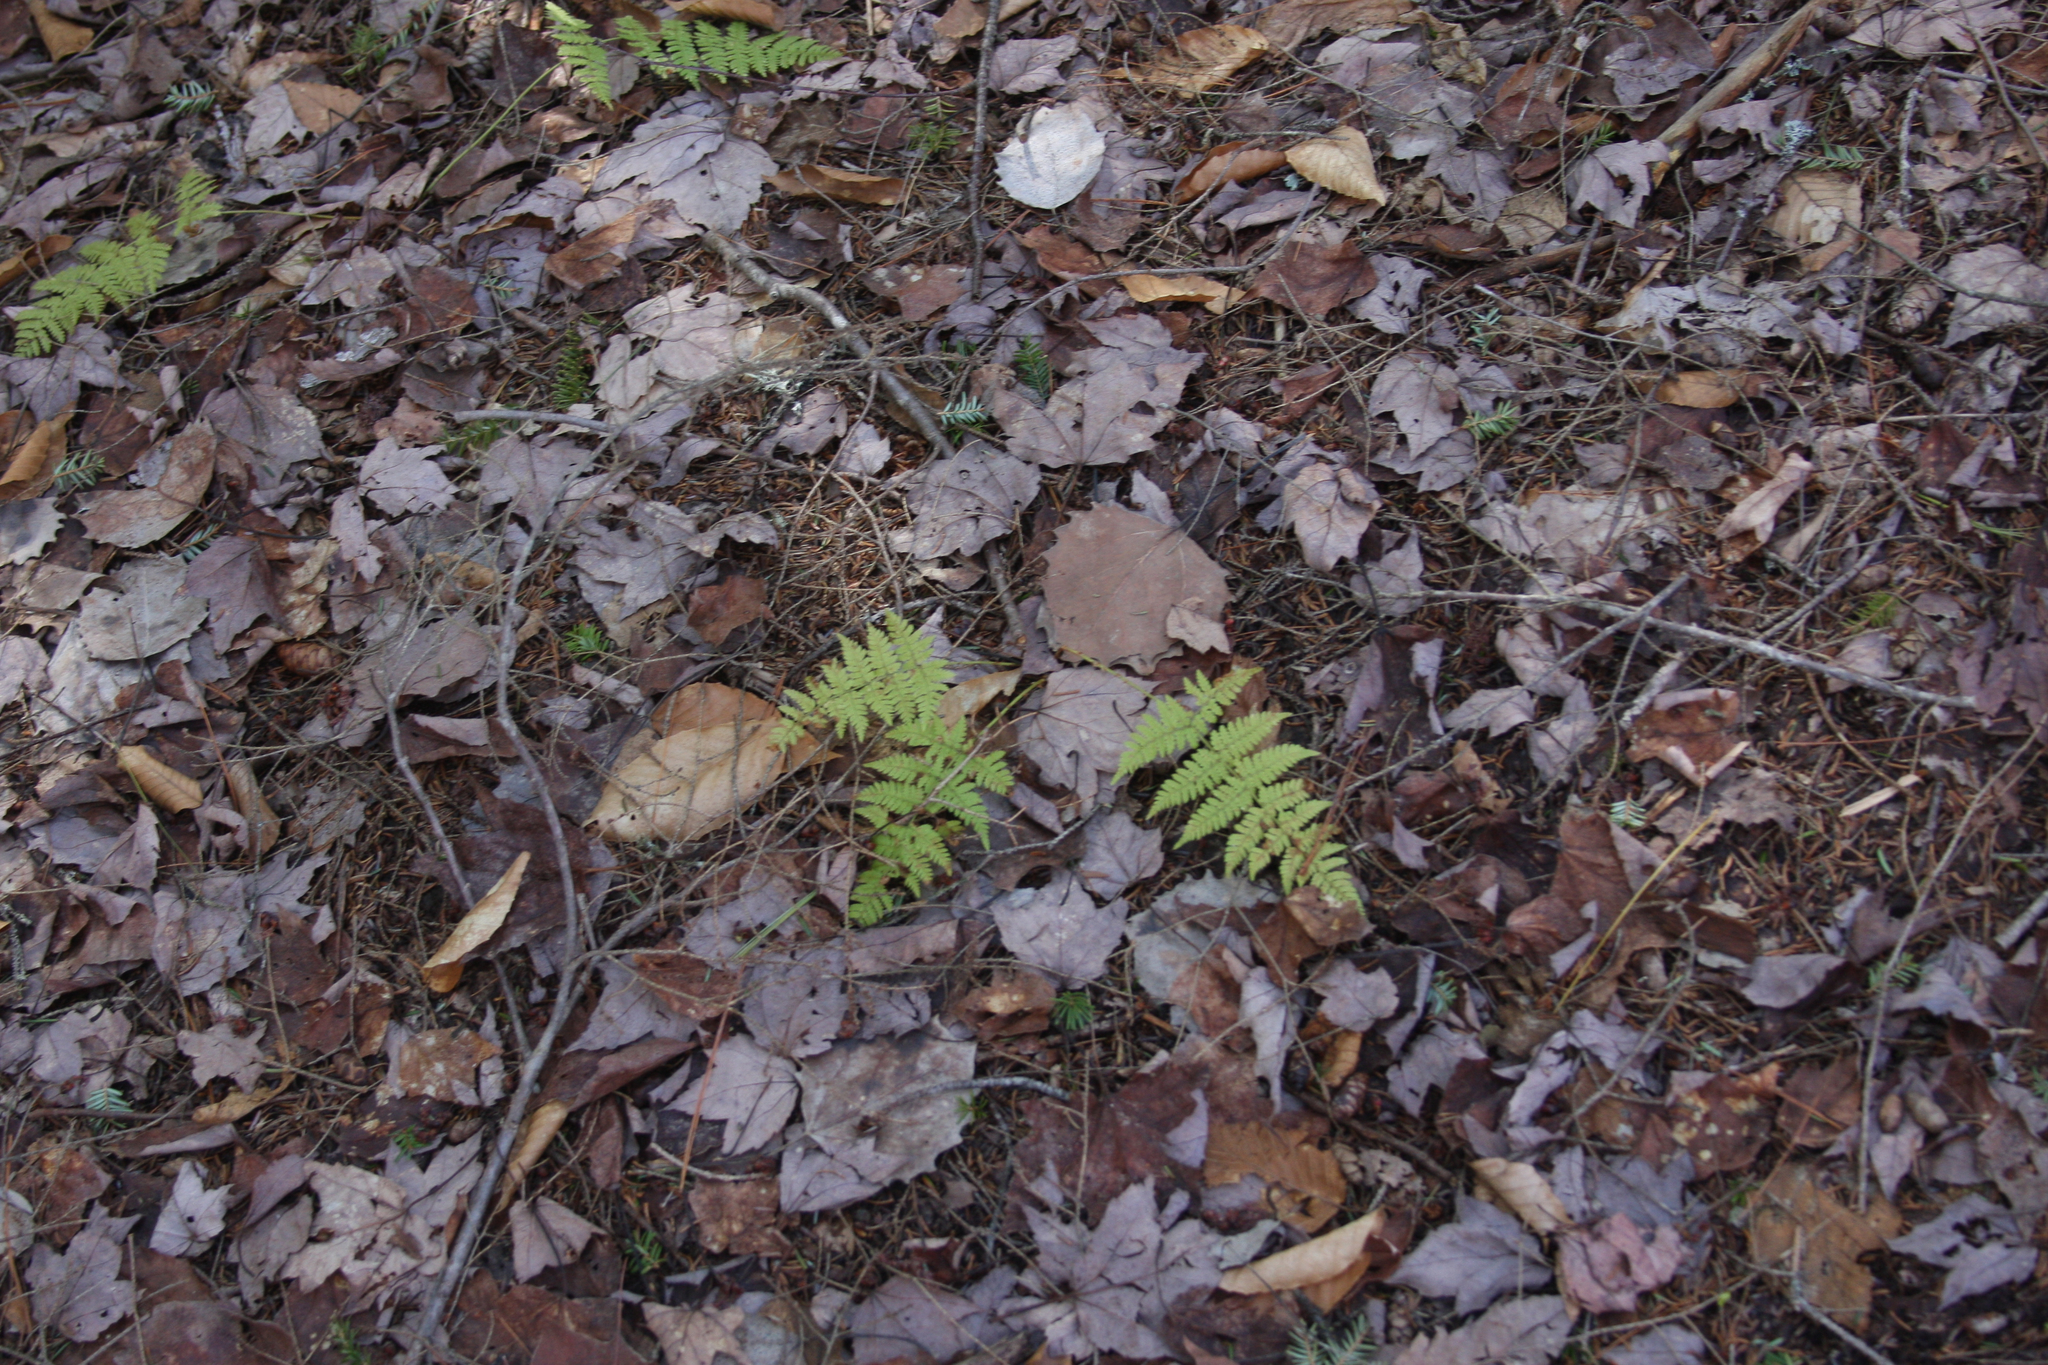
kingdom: Plantae
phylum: Tracheophyta
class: Polypodiopsida
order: Polypodiales
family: Dryopteridaceae
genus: Dryopteris
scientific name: Dryopteris intermedia
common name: Evergreen wood fern
